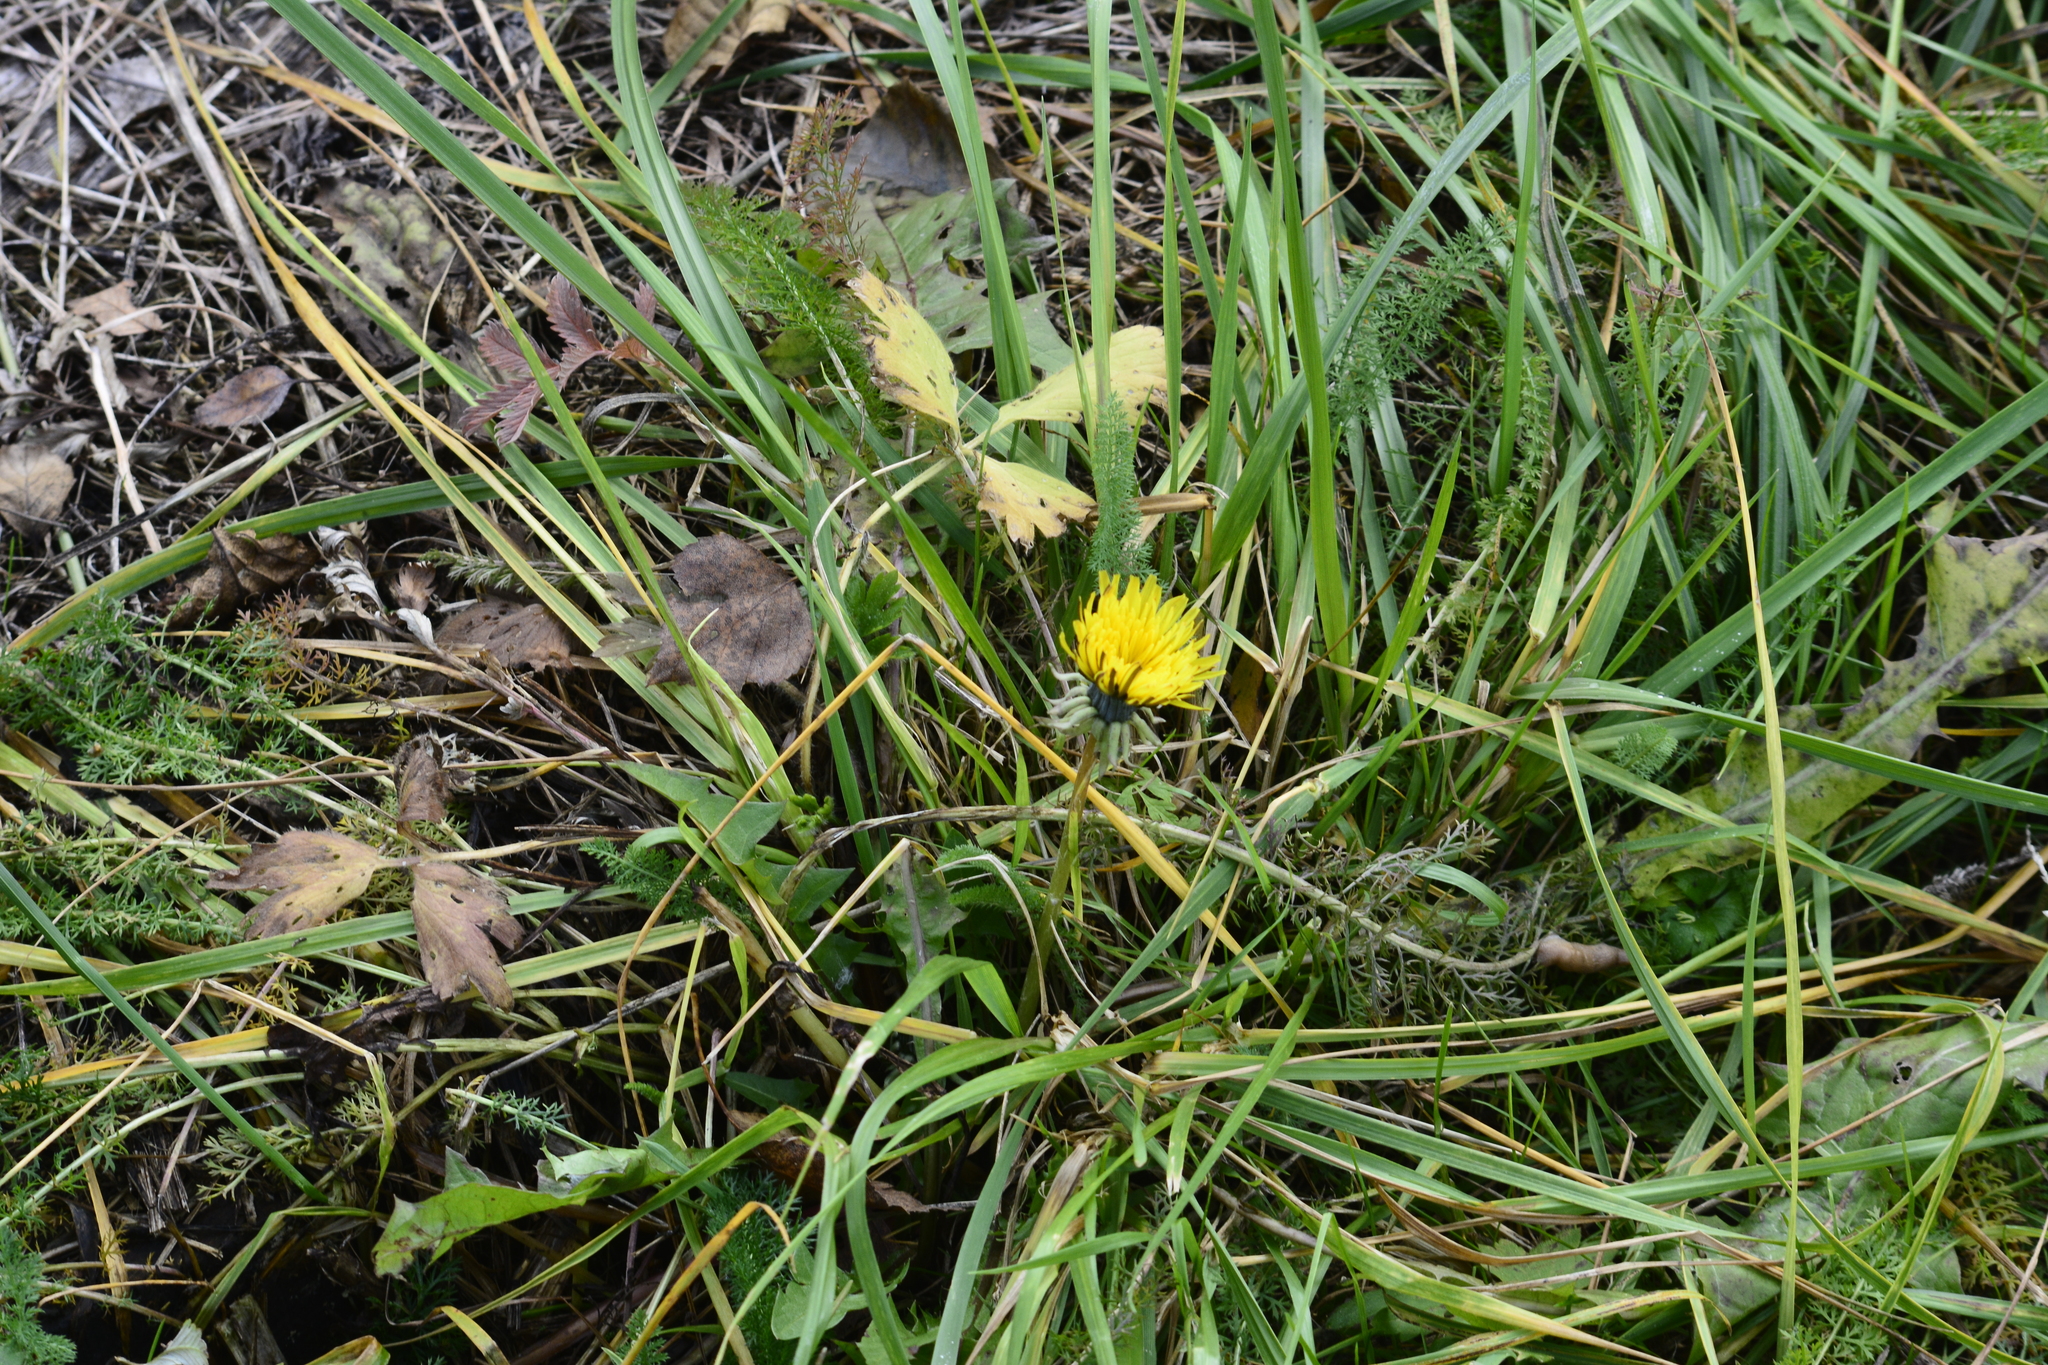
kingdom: Plantae
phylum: Tracheophyta
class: Magnoliopsida
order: Asterales
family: Asteraceae
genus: Taraxacum
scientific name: Taraxacum officinale
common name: Common dandelion
